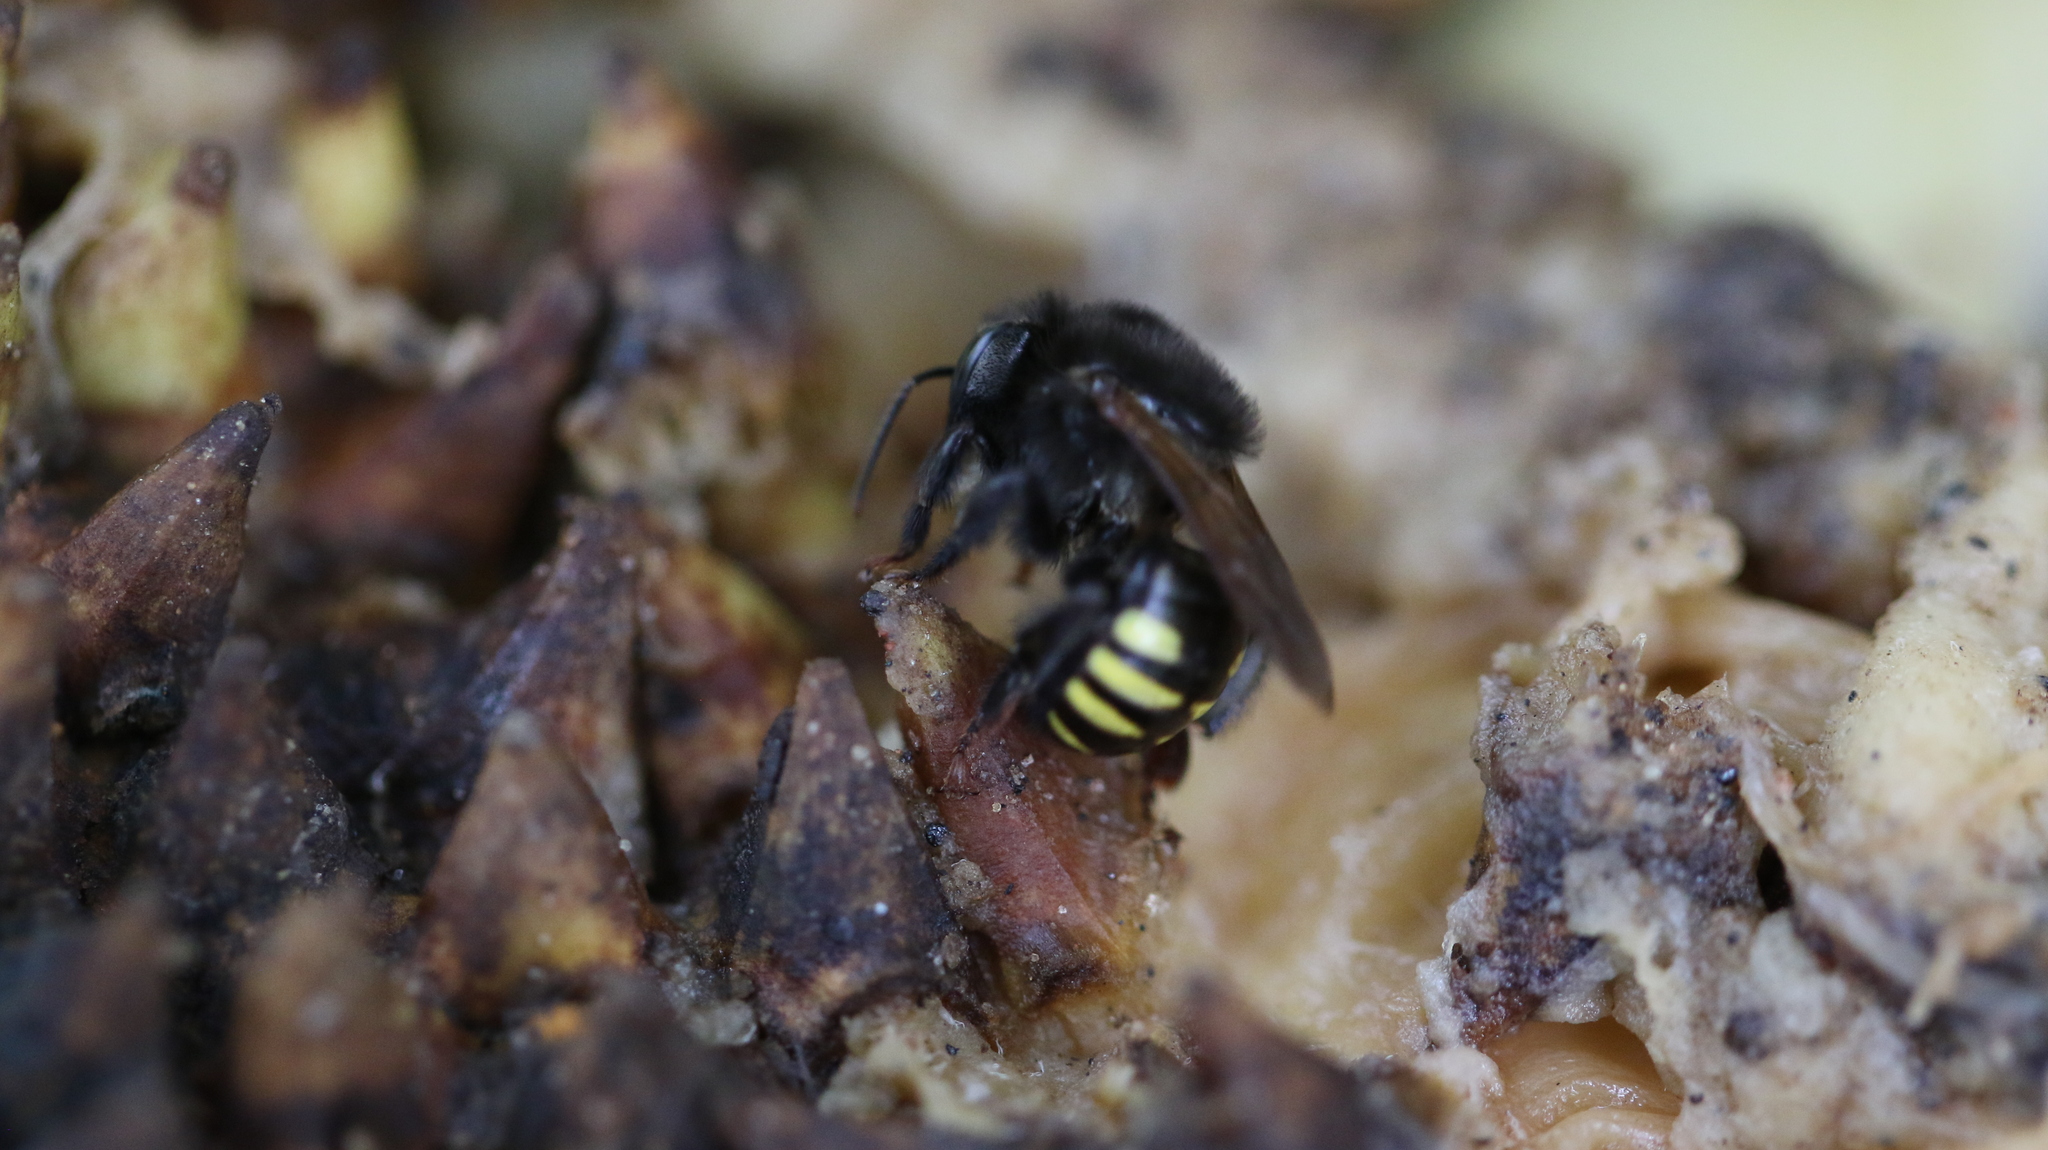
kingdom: Animalia
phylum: Arthropoda
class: Insecta
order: Hymenoptera
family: Apidae
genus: Melipona
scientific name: Melipona quadrifasciata
